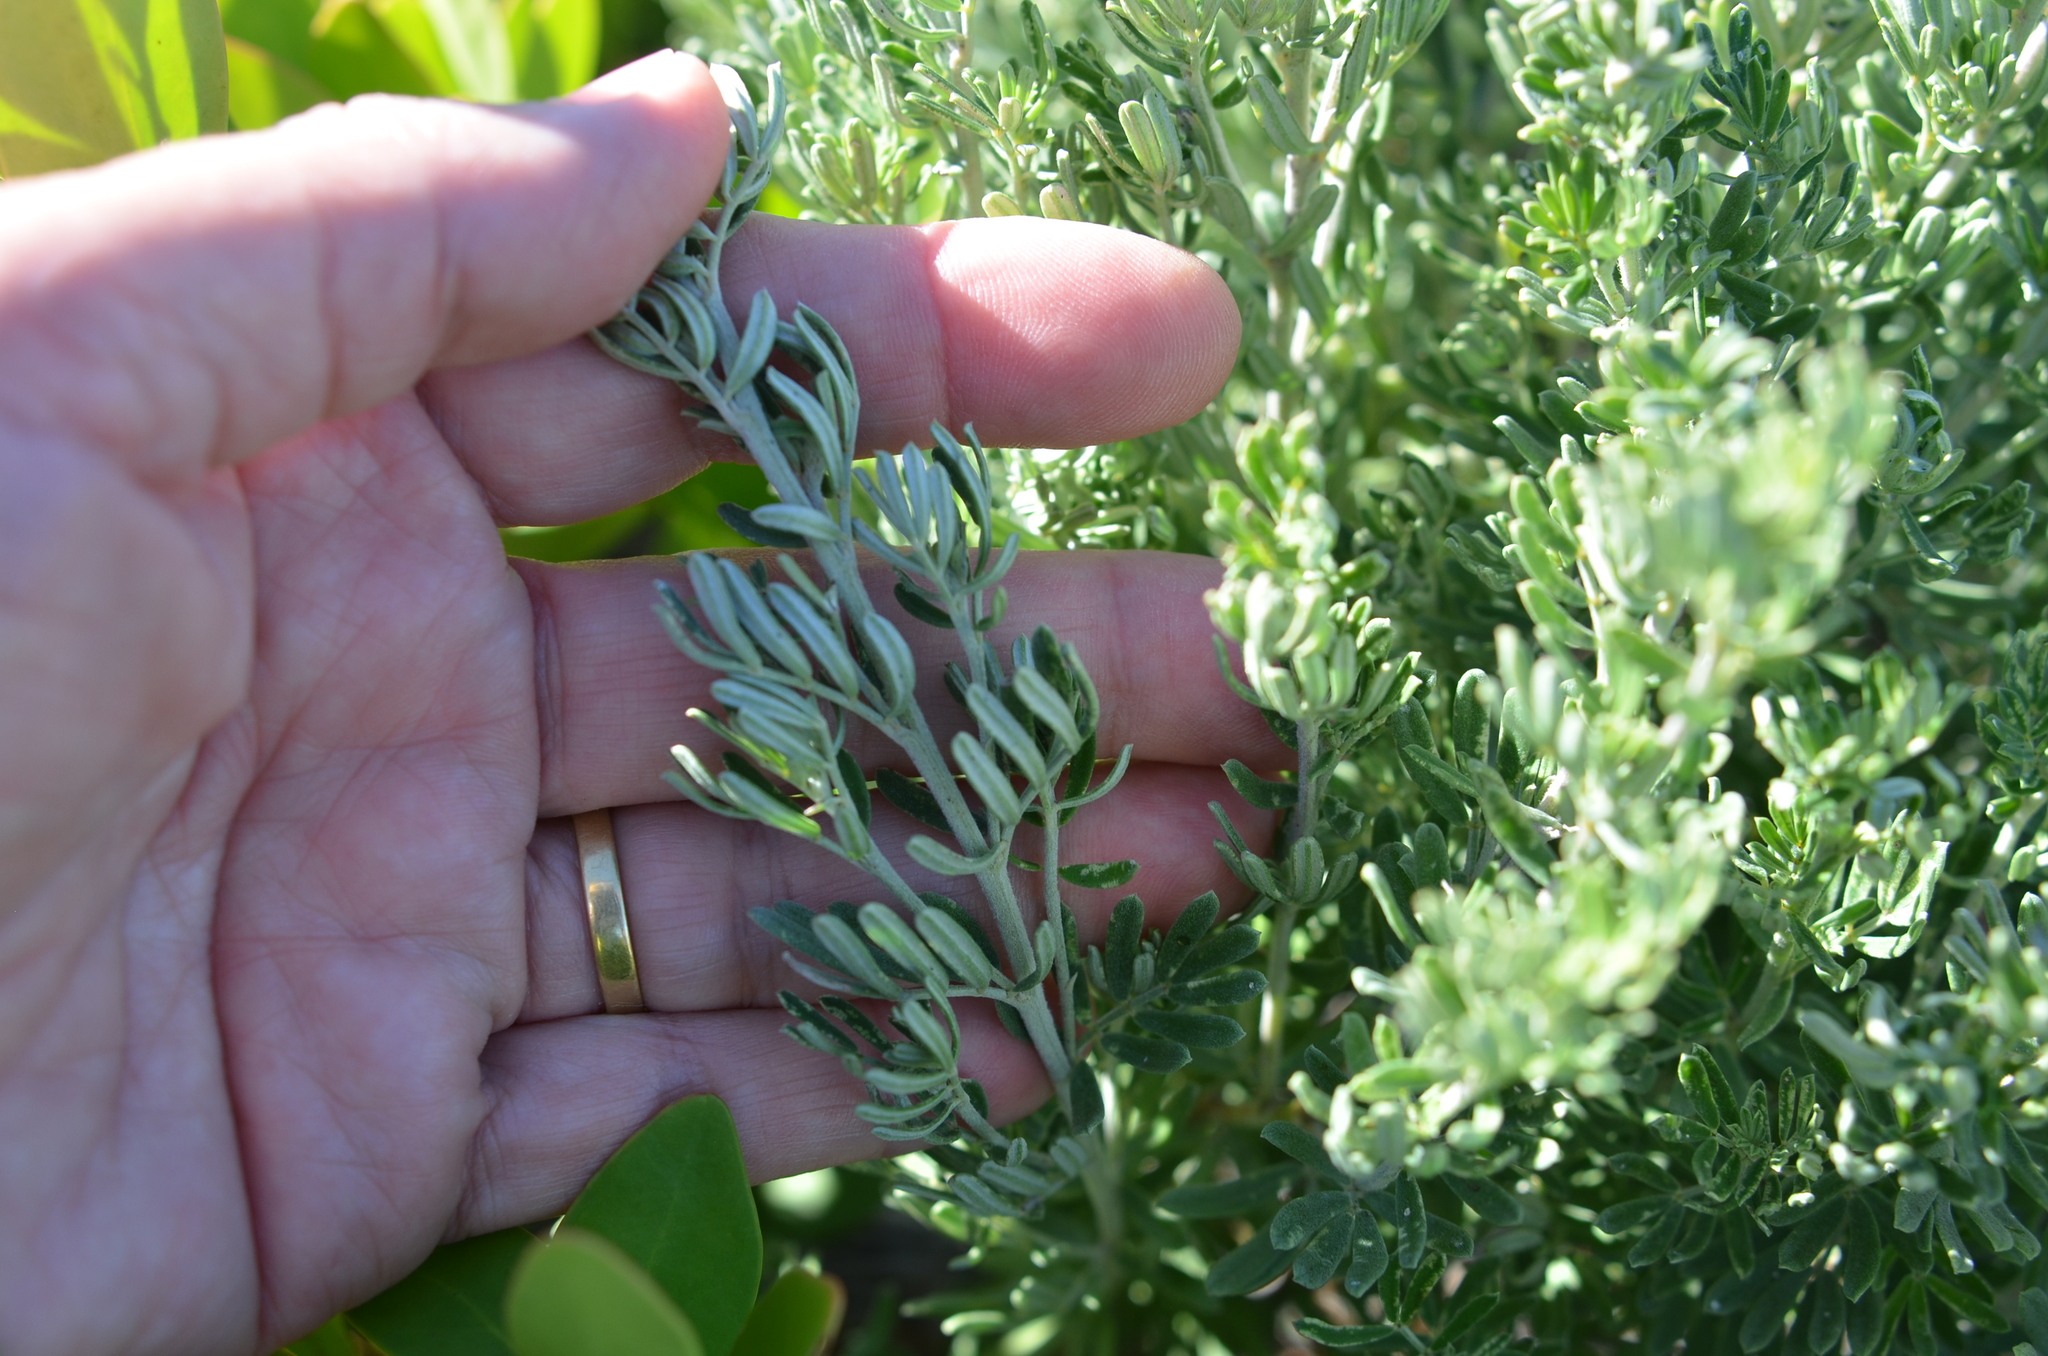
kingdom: Plantae
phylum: Tracheophyta
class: Magnoliopsida
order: Fabales
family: Fabaceae
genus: Indigofera
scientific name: Indigofera brachystachya
